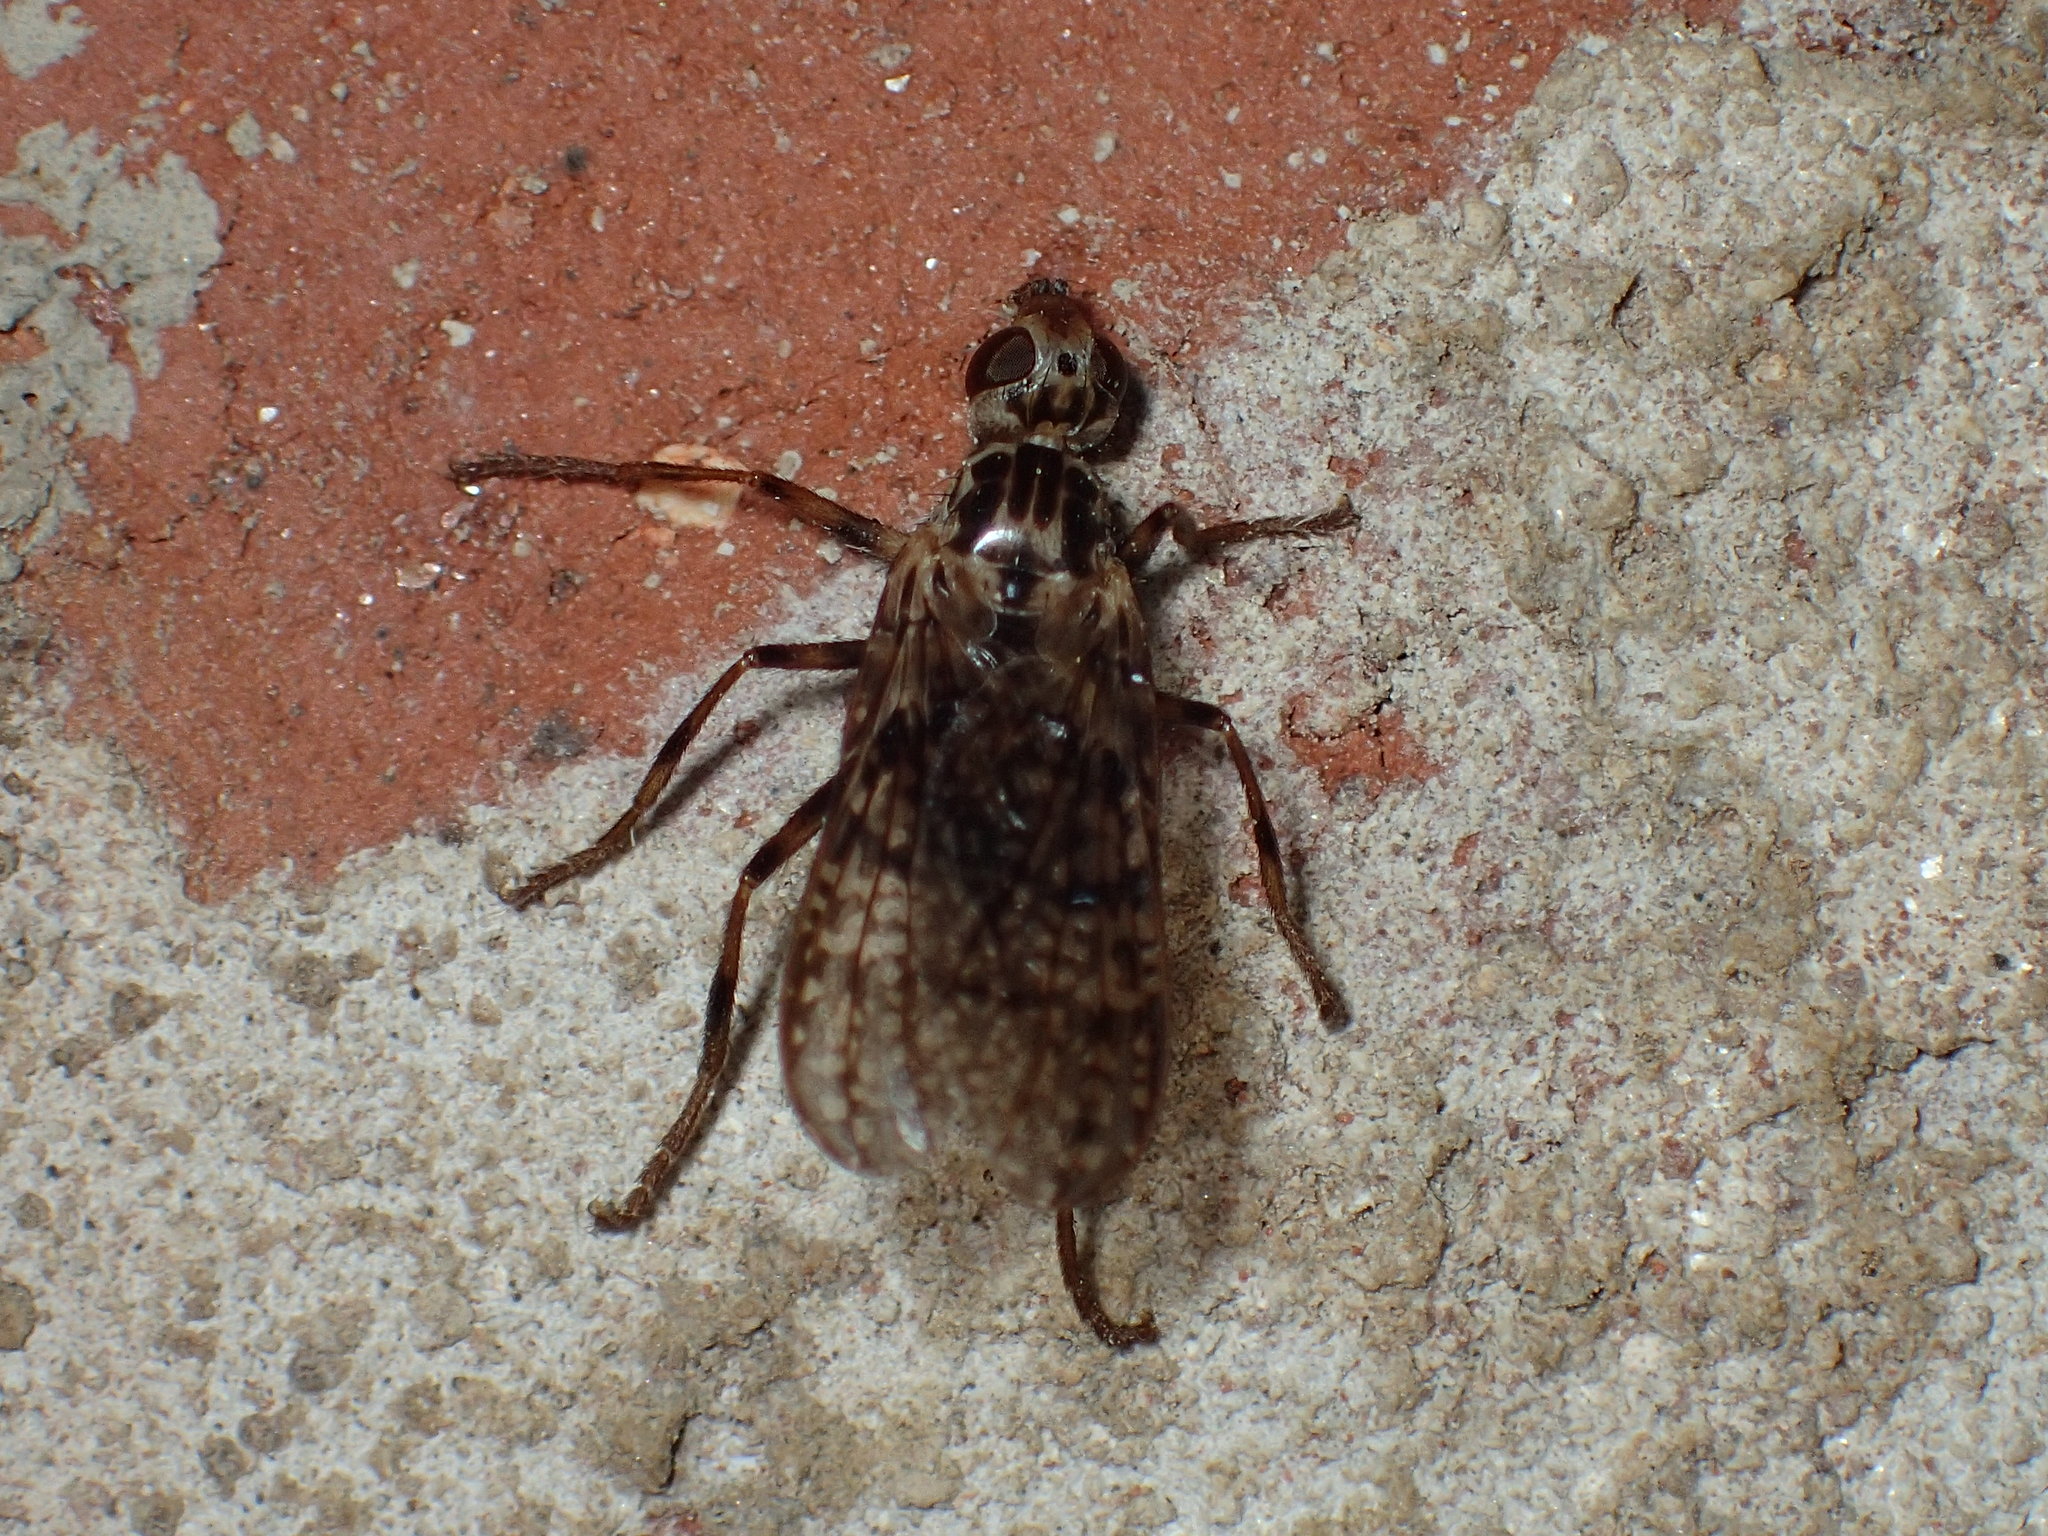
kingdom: Animalia
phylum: Arthropoda
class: Insecta
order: Diptera
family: Pyrgotidae
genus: Boreothrinax
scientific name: Boreothrinax
